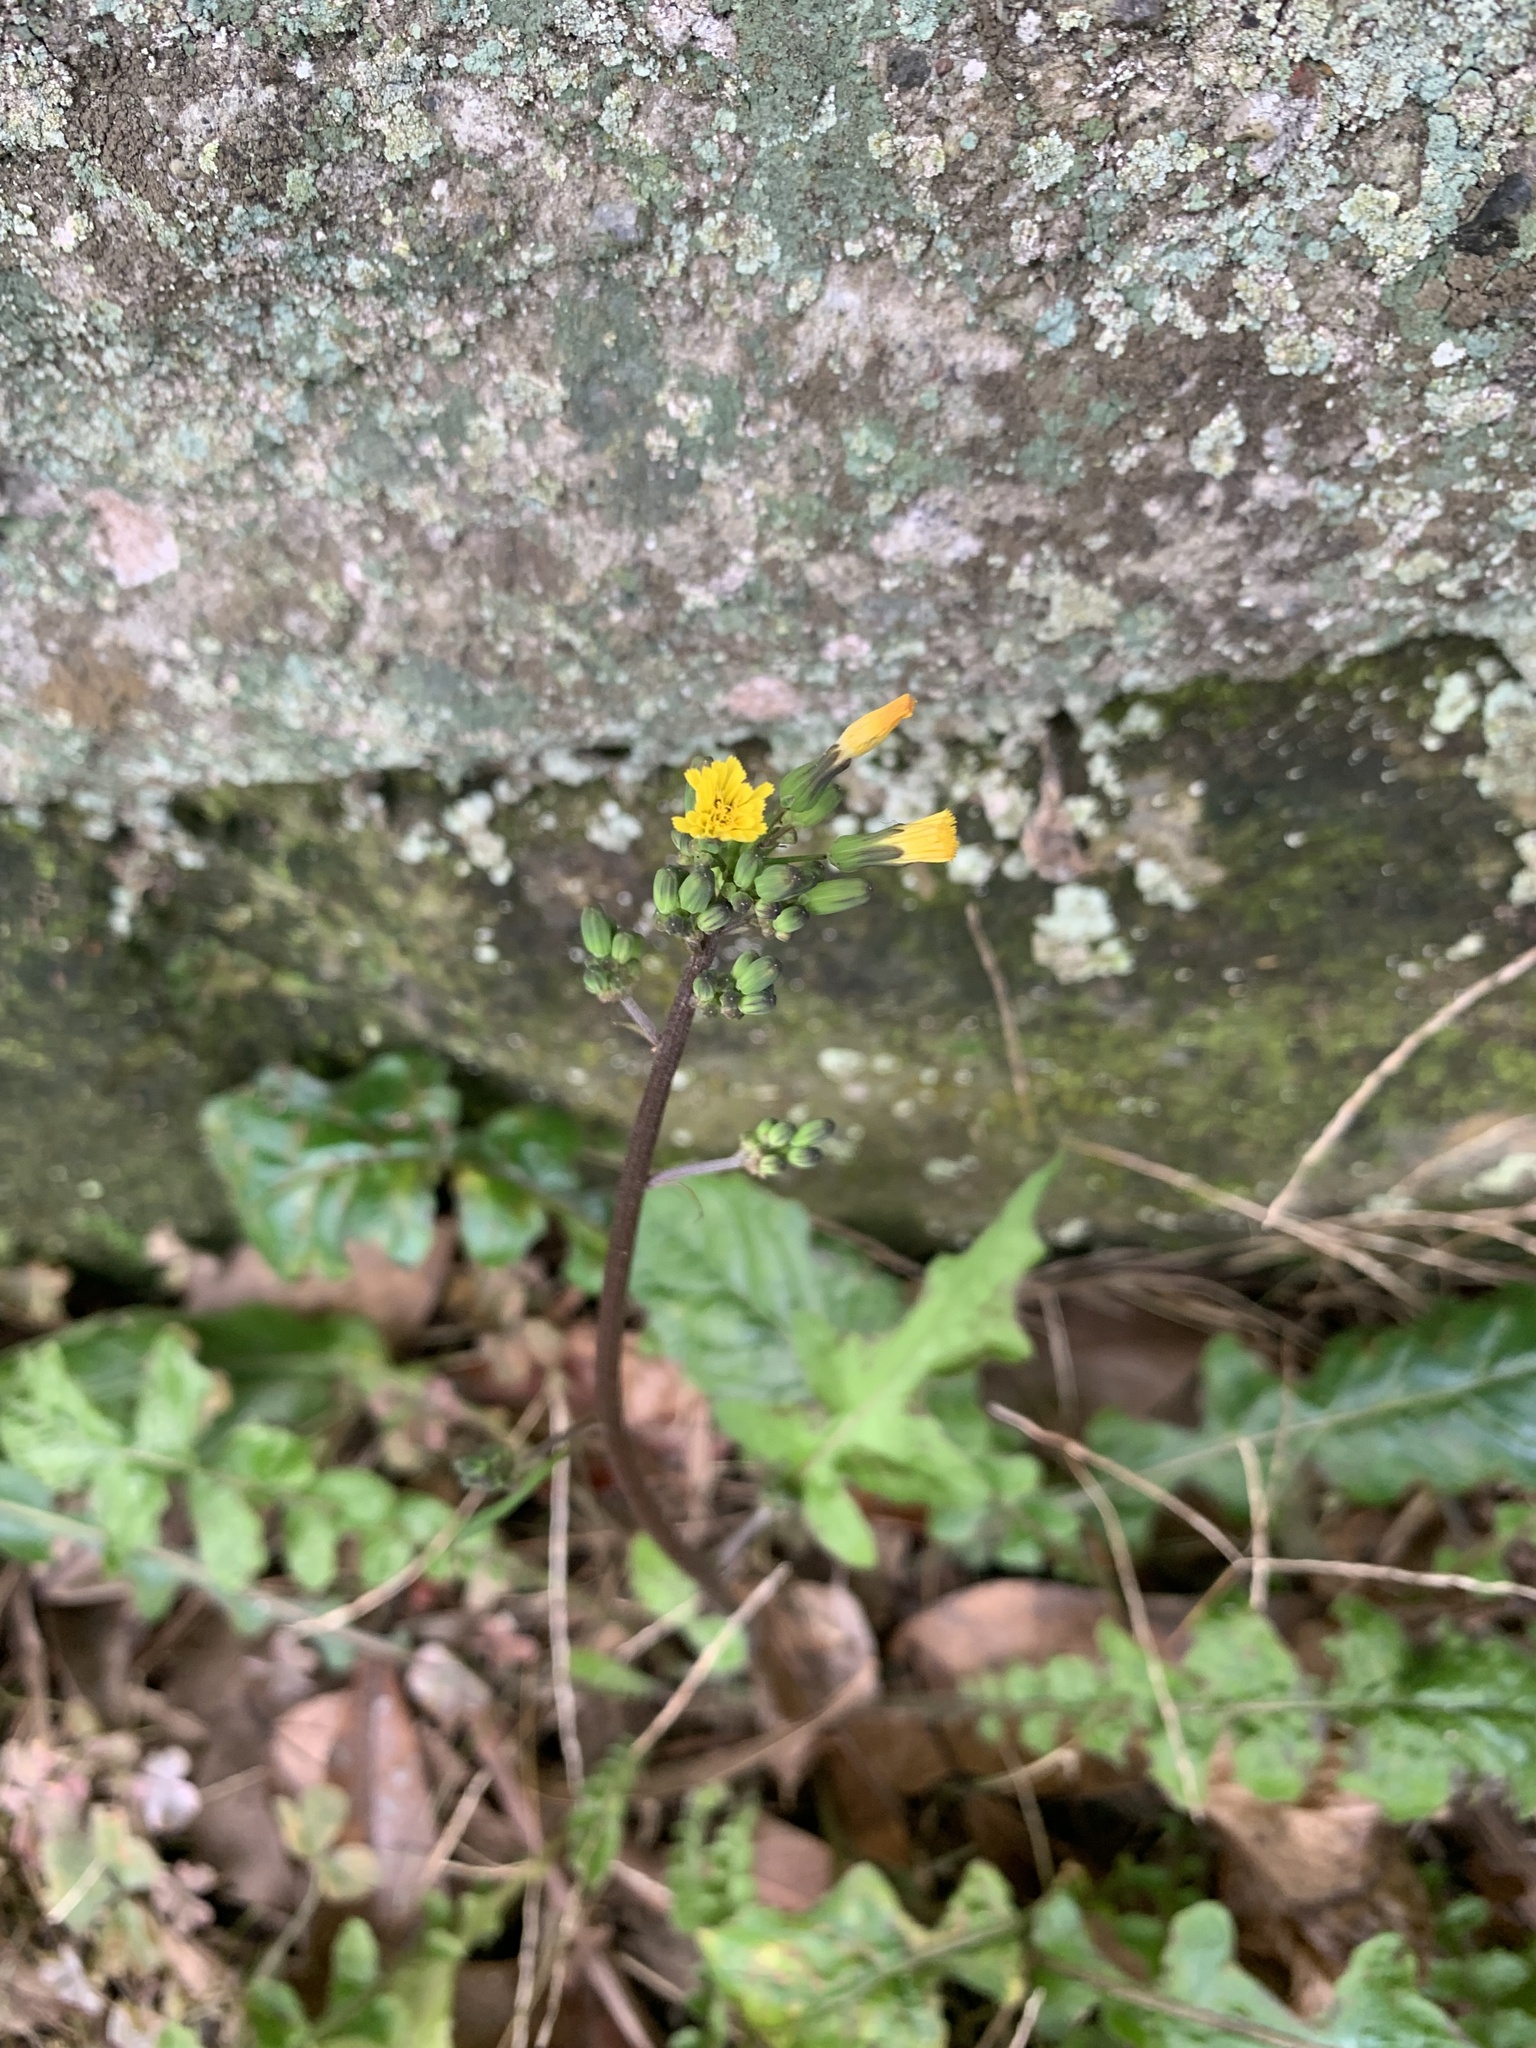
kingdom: Plantae
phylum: Tracheophyta
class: Magnoliopsida
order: Asterales
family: Asteraceae
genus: Youngia
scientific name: Youngia japonica
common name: Oriental false hawksbeard
